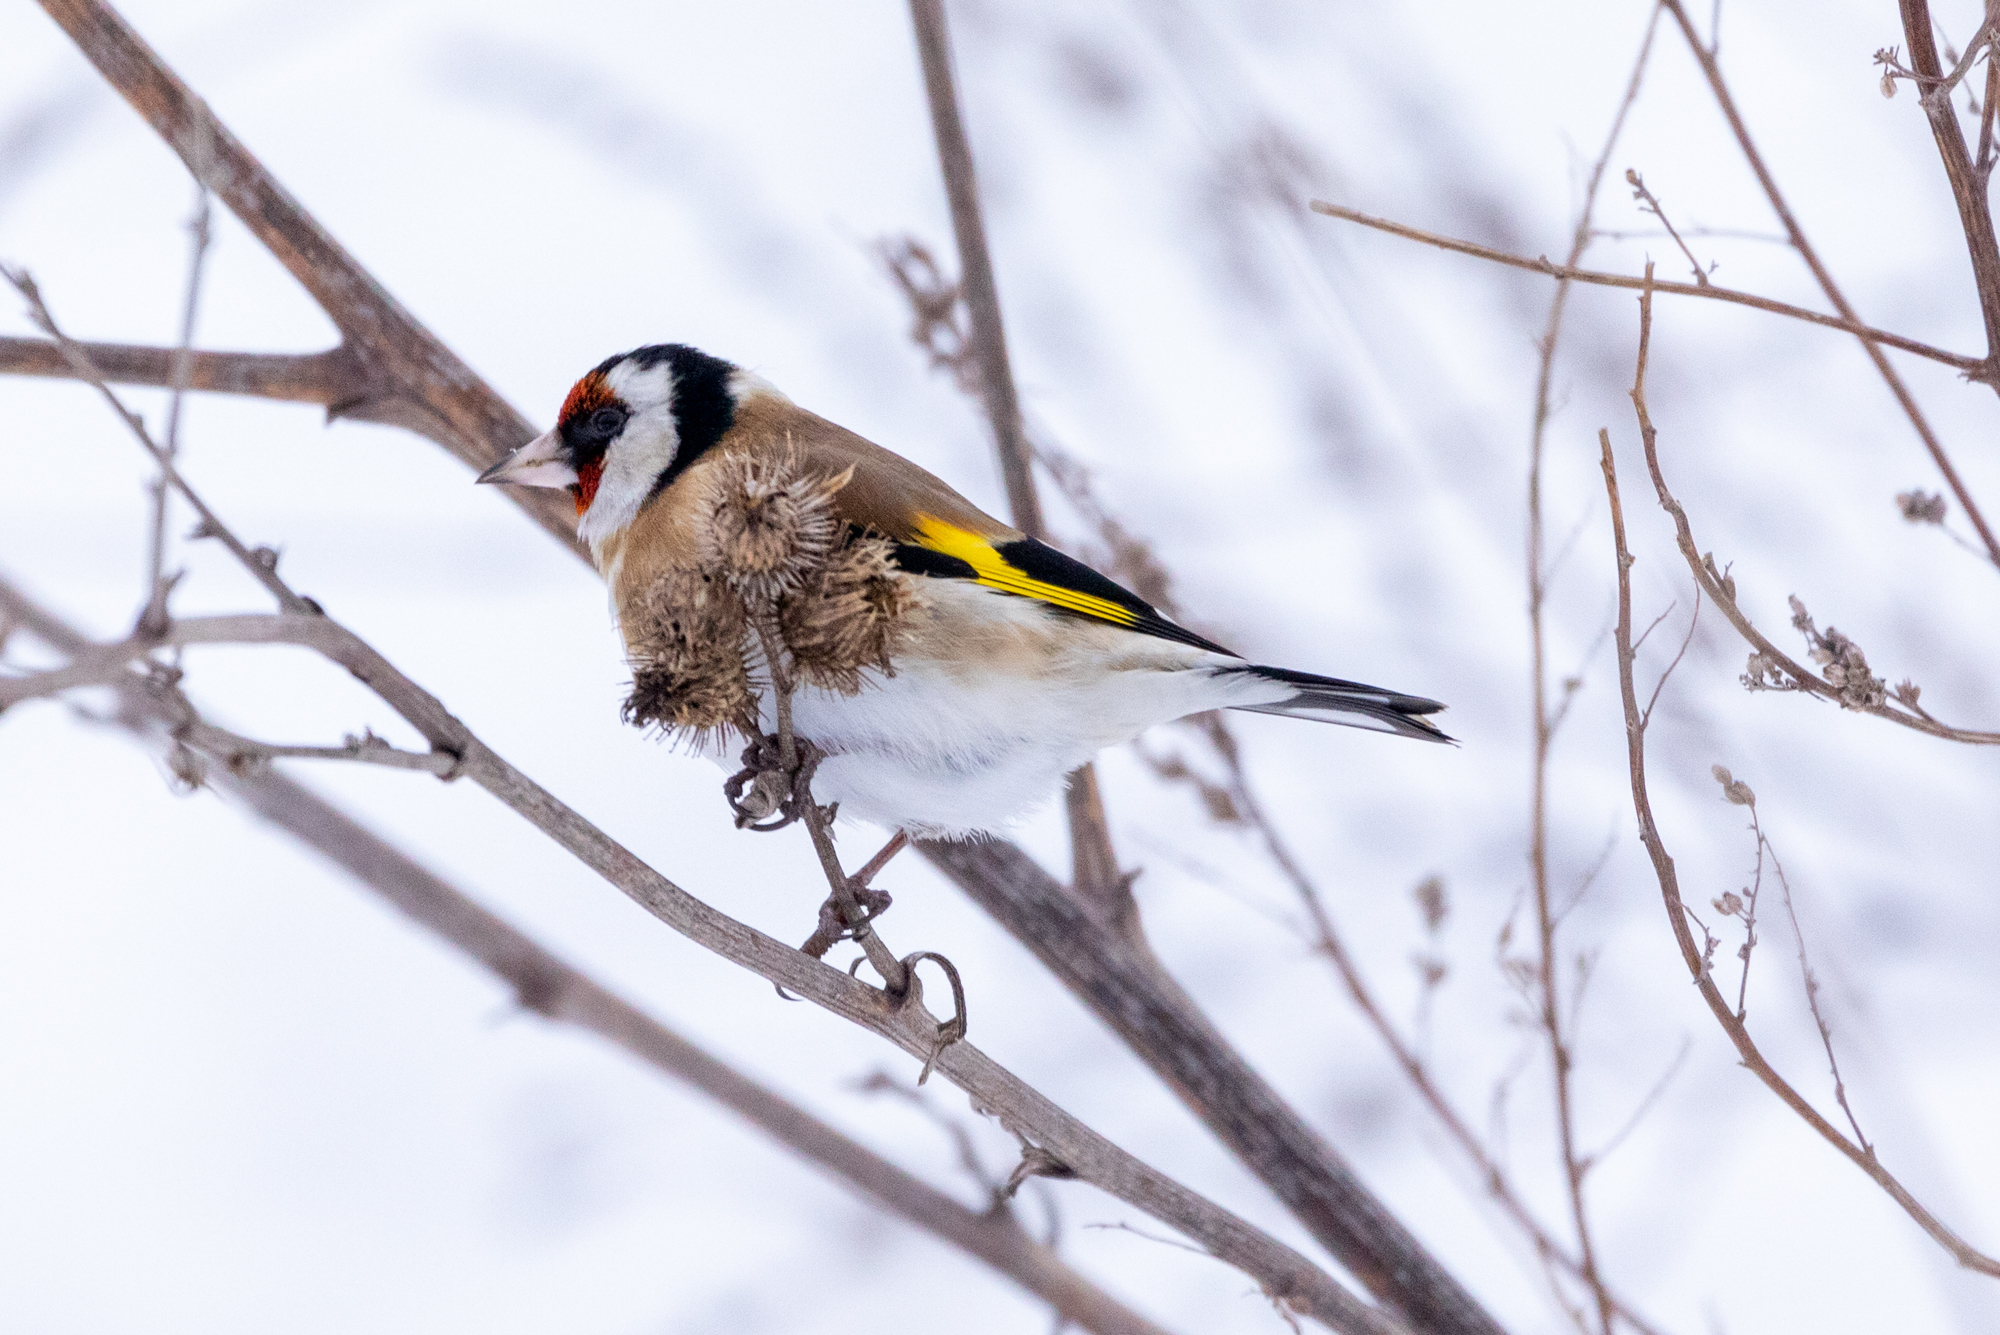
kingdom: Animalia
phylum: Chordata
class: Aves
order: Passeriformes
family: Fringillidae
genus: Carduelis
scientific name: Carduelis carduelis
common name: European goldfinch
